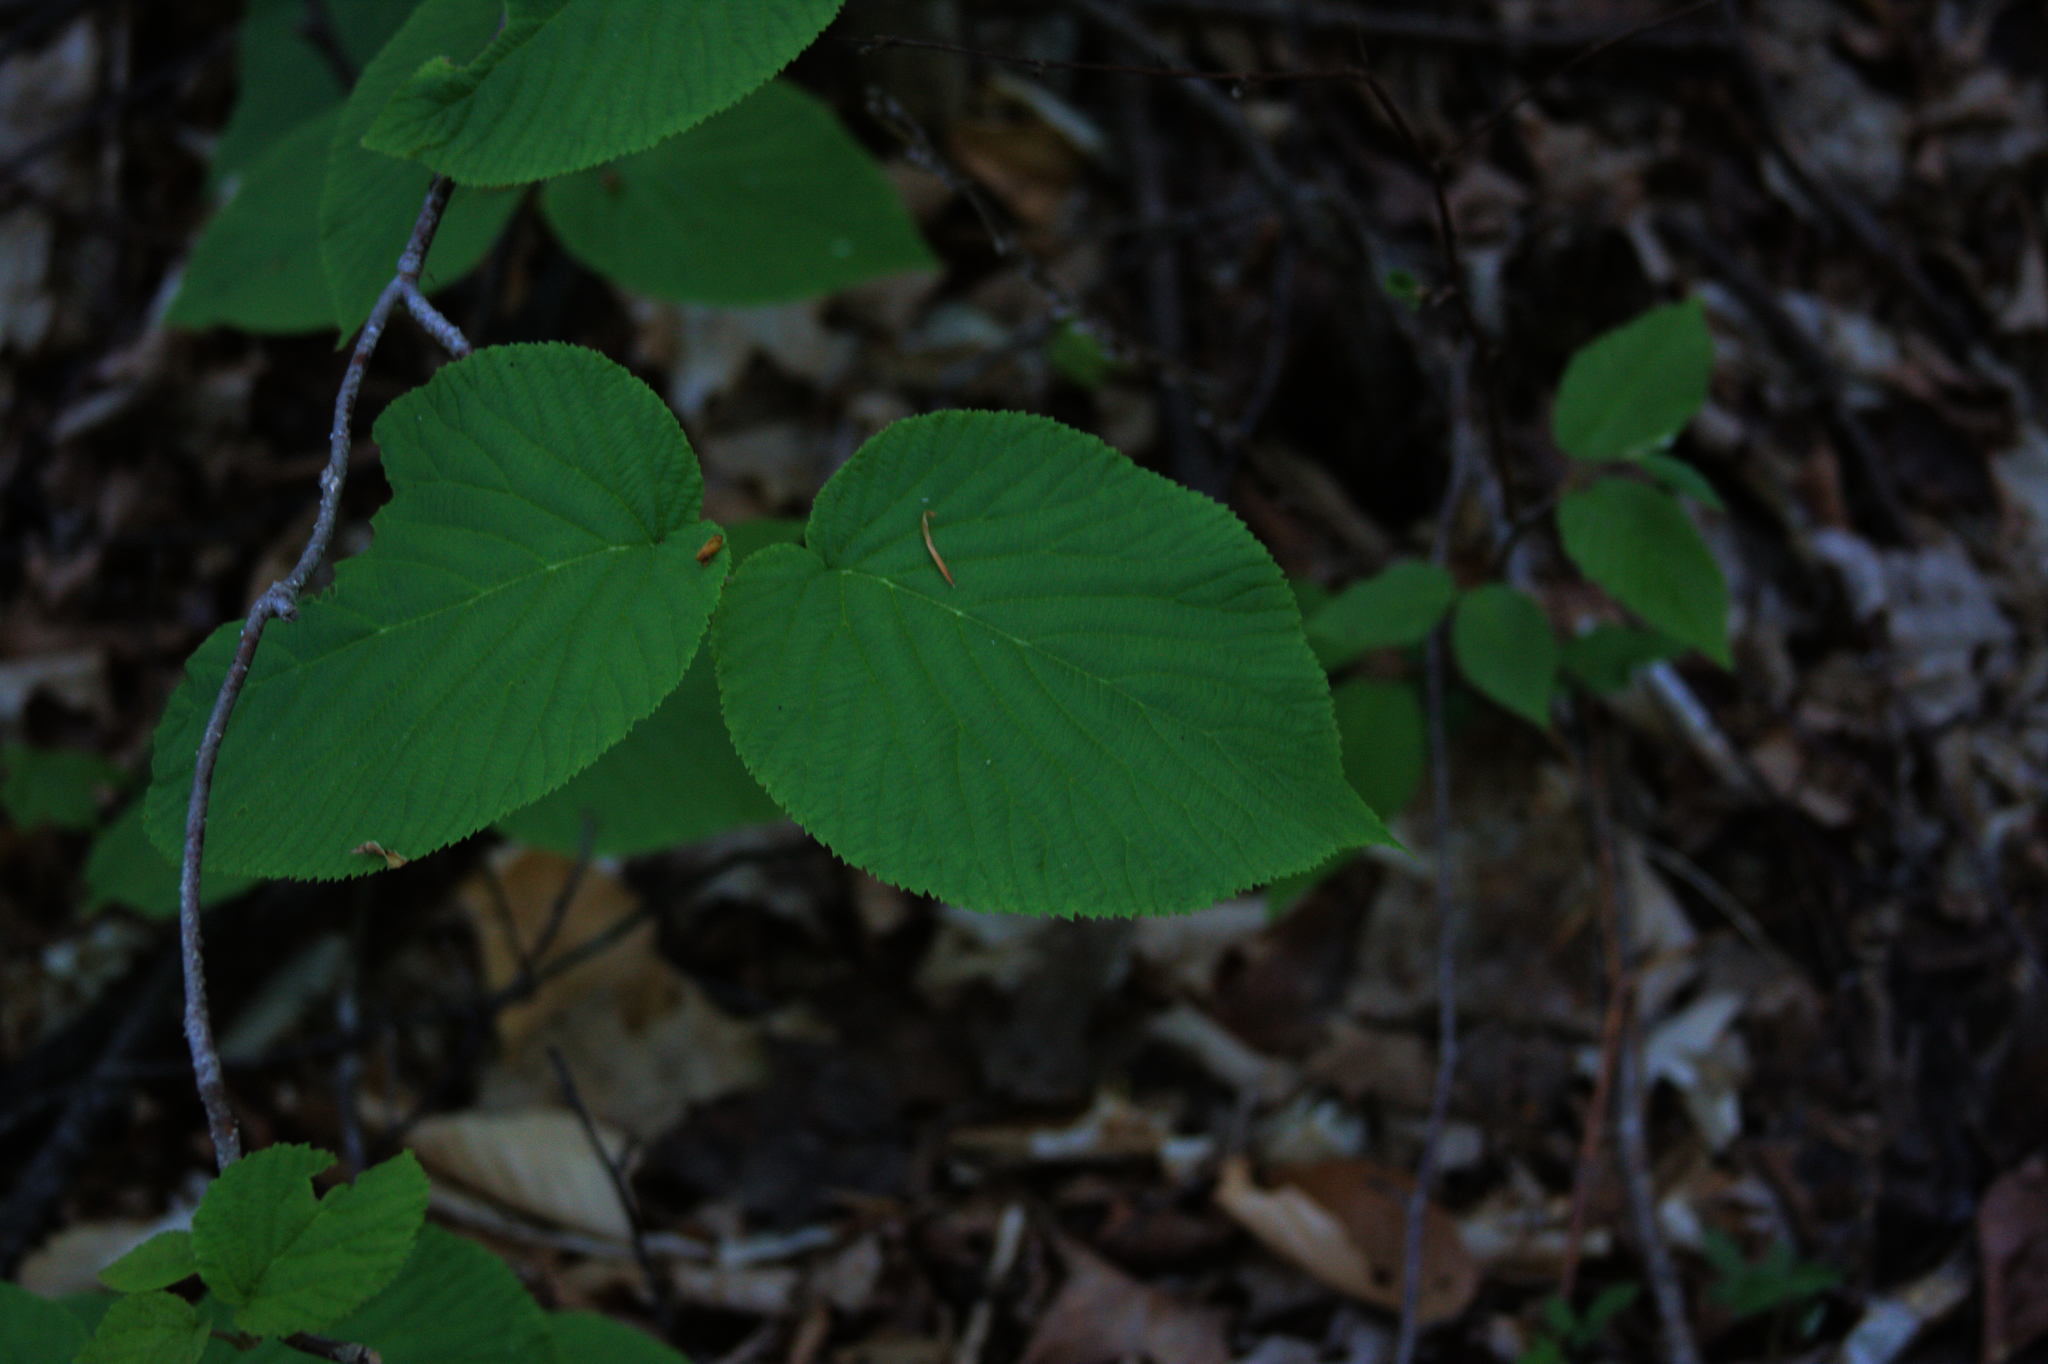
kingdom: Plantae
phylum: Tracheophyta
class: Polypodiopsida
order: Polypodiales
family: Onocleaceae
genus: Onoclea
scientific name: Onoclea sensibilis
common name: Sensitive fern
